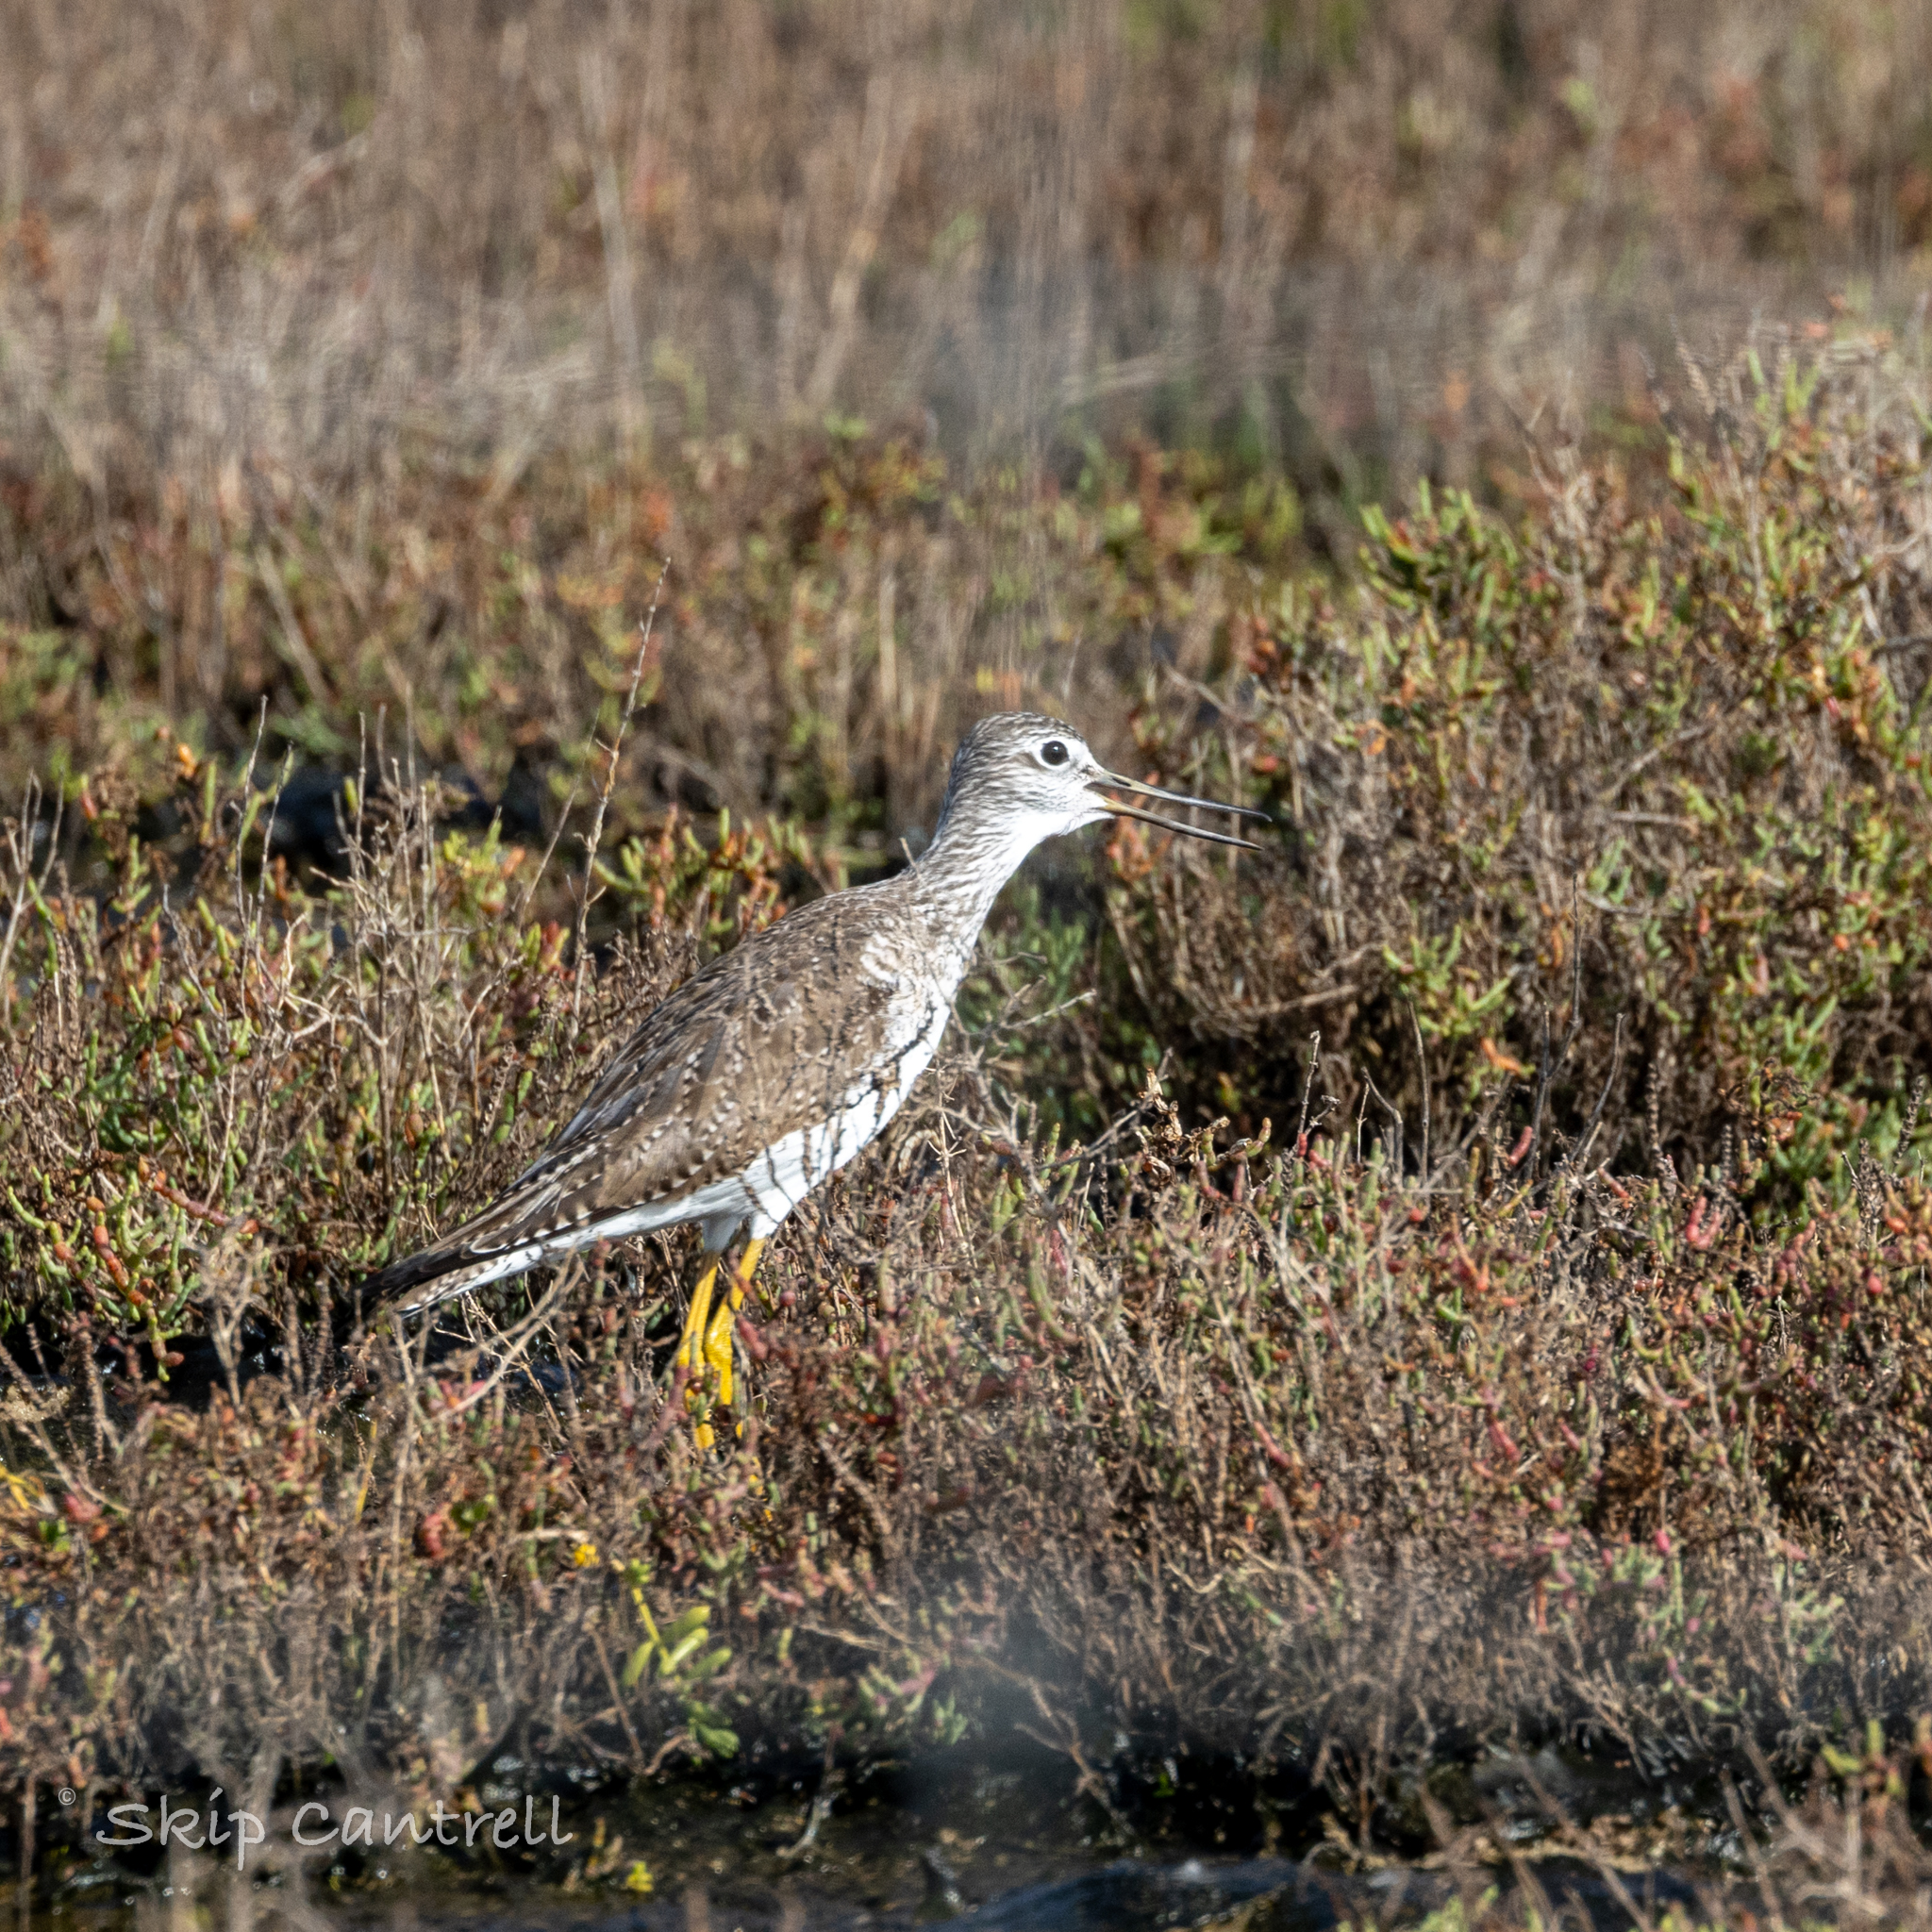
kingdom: Animalia
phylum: Chordata
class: Aves
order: Charadriiformes
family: Scolopacidae
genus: Tringa
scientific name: Tringa melanoleuca
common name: Greater yellowlegs
